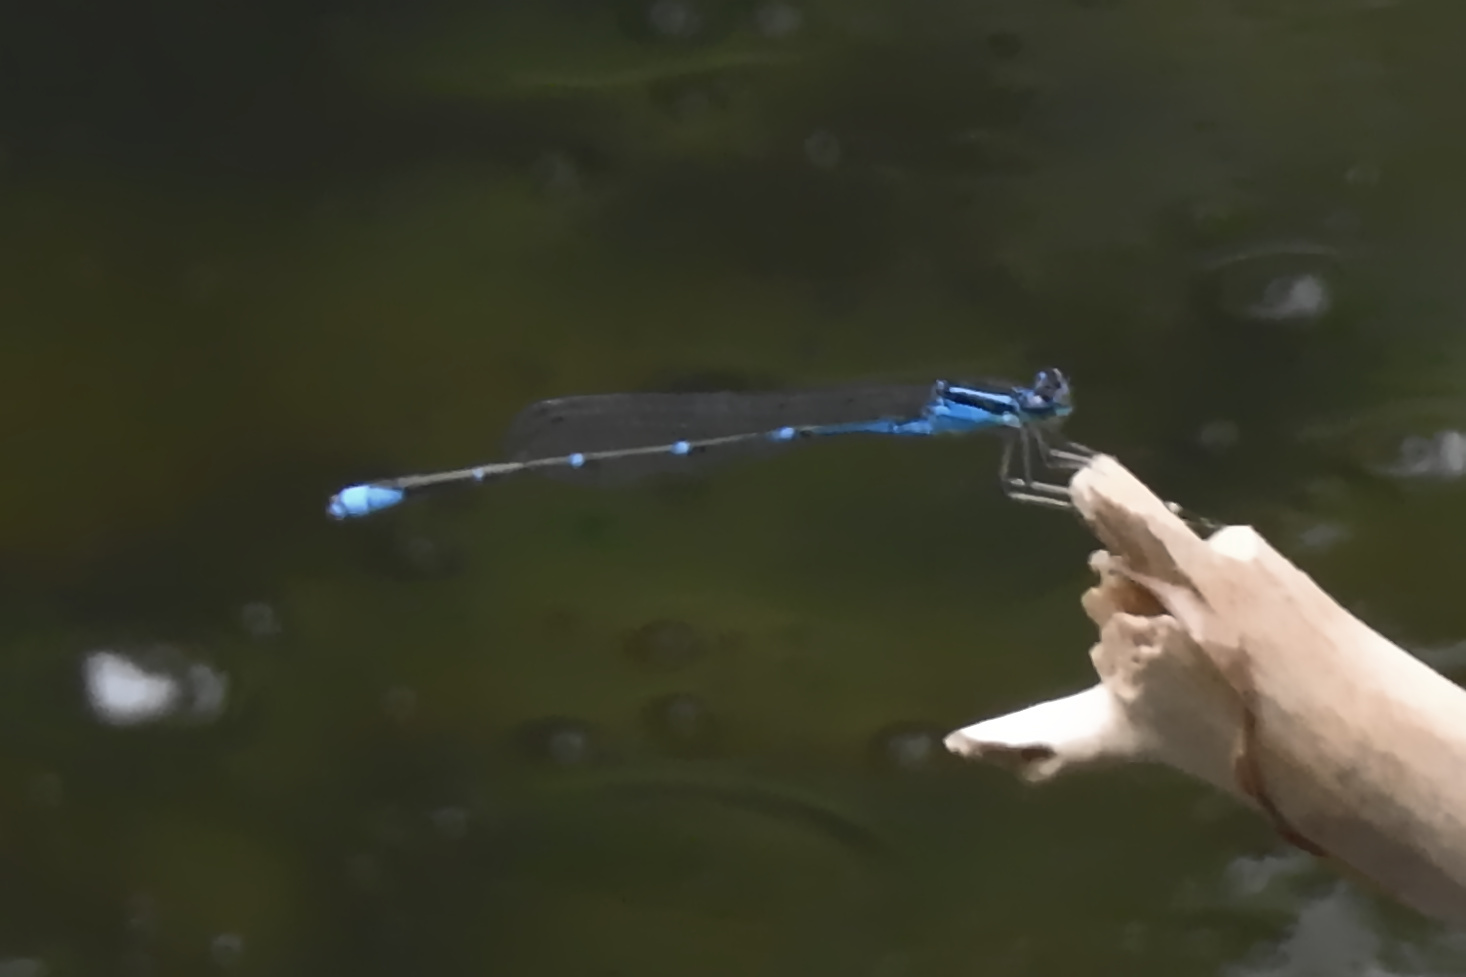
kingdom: Animalia
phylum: Arthropoda
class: Insecta
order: Odonata
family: Coenagrionidae
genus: Enallagma
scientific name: Enallagma exsulans
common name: Stream bluet
